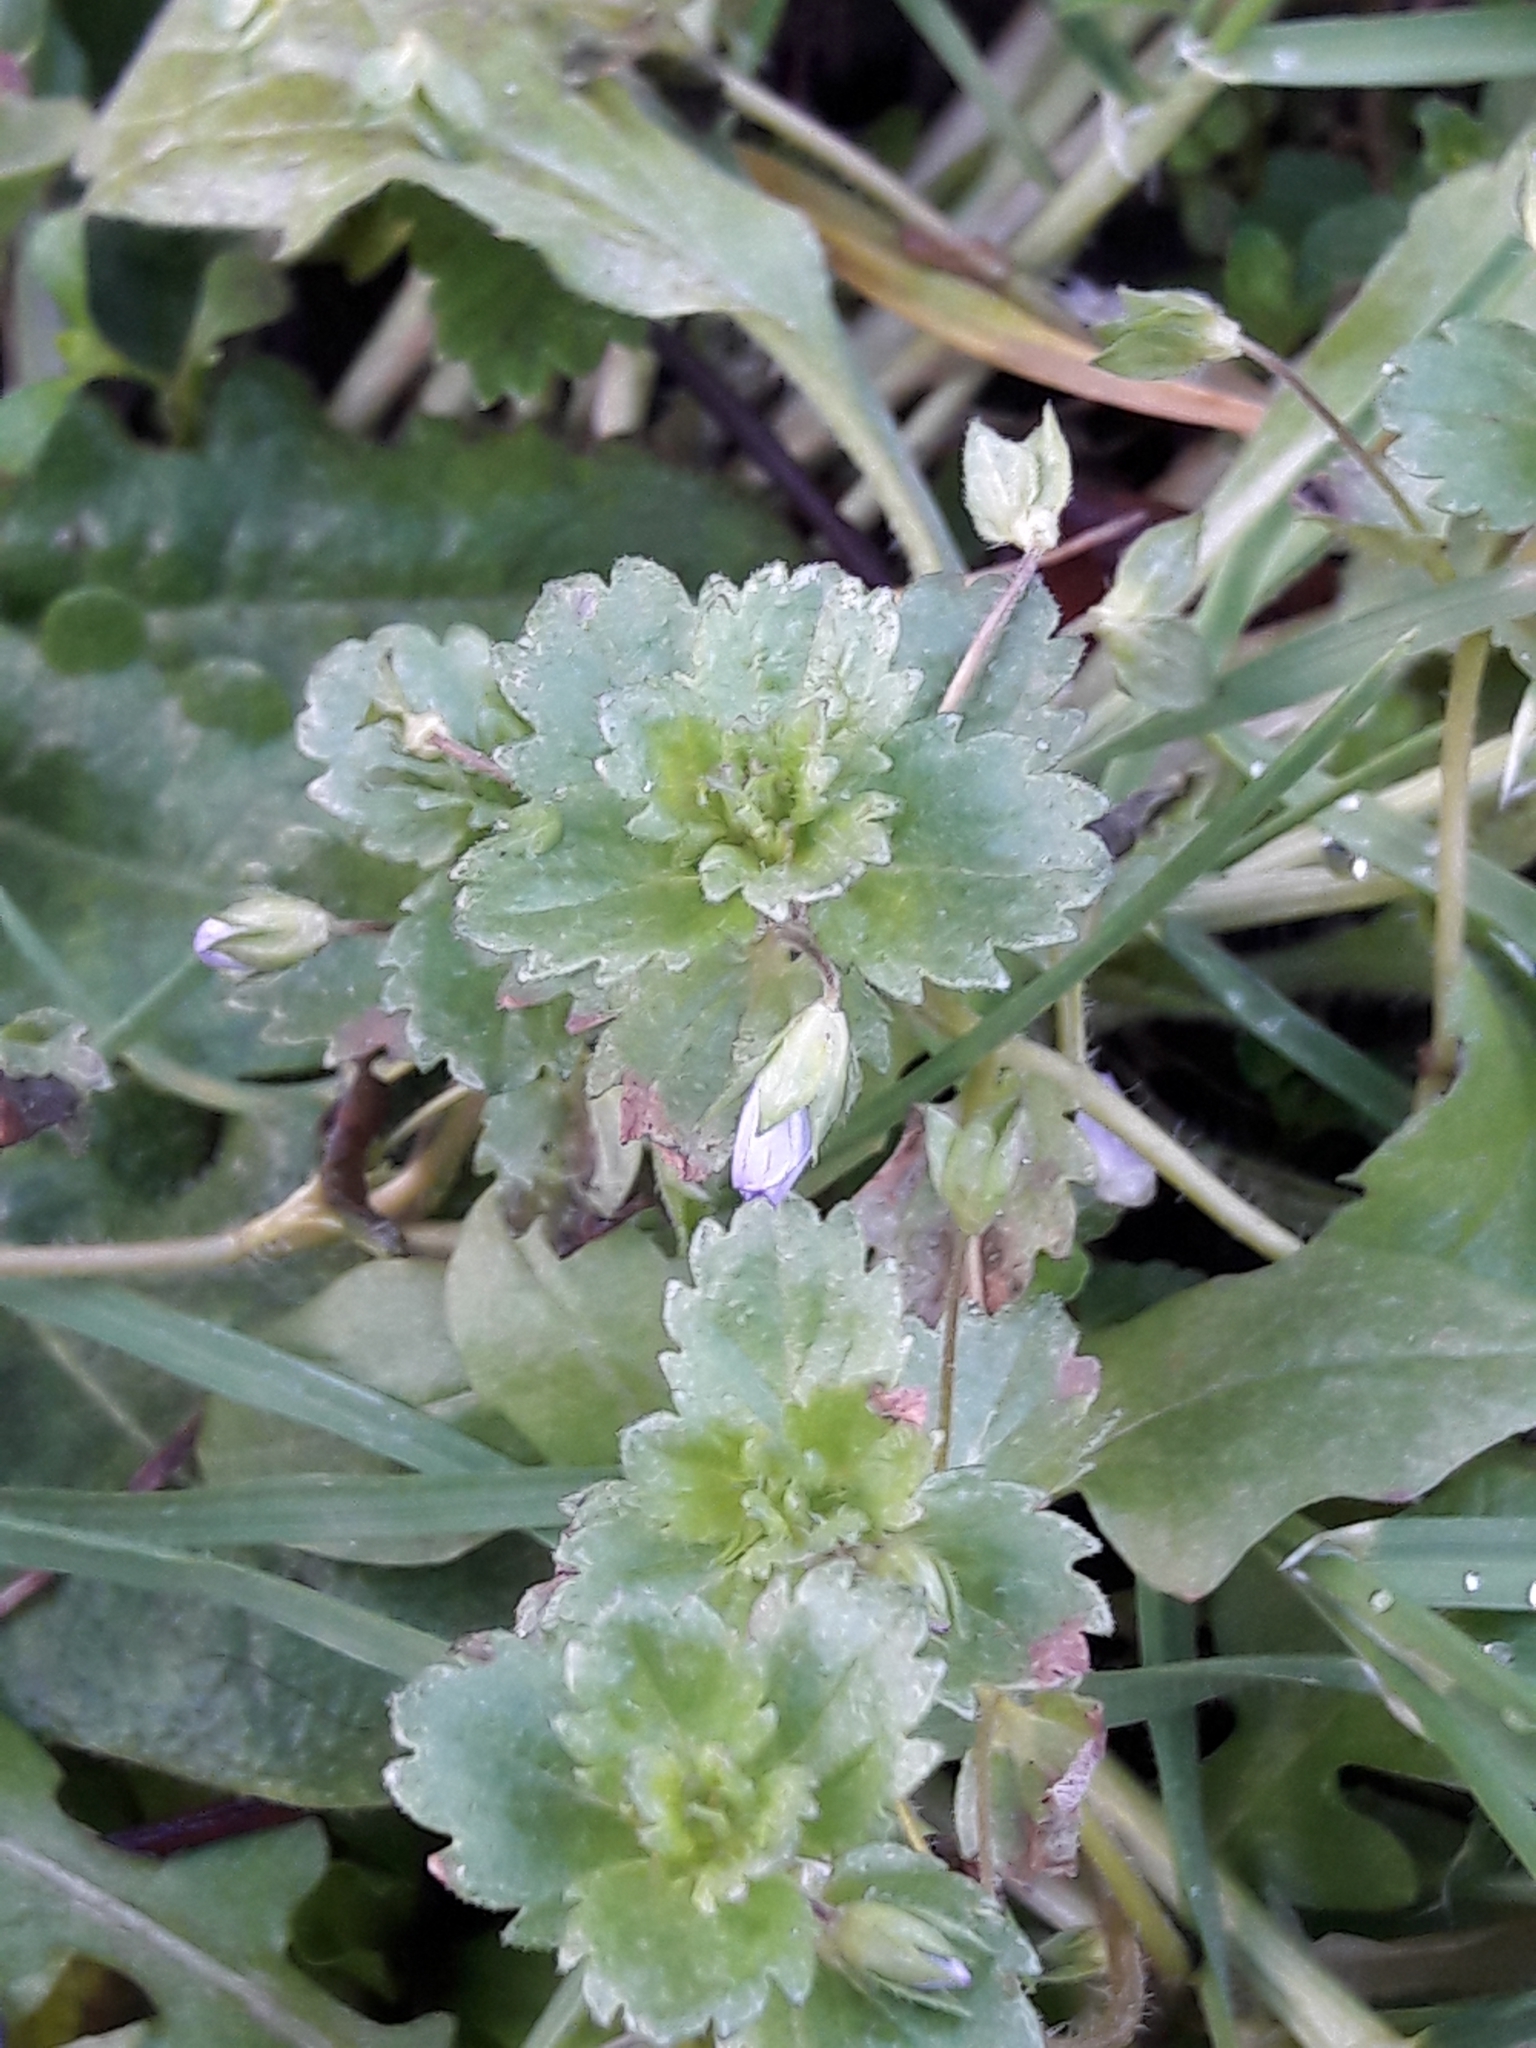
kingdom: Plantae
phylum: Tracheophyta
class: Magnoliopsida
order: Lamiales
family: Plantaginaceae
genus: Veronica
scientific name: Veronica persica
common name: Common field-speedwell
